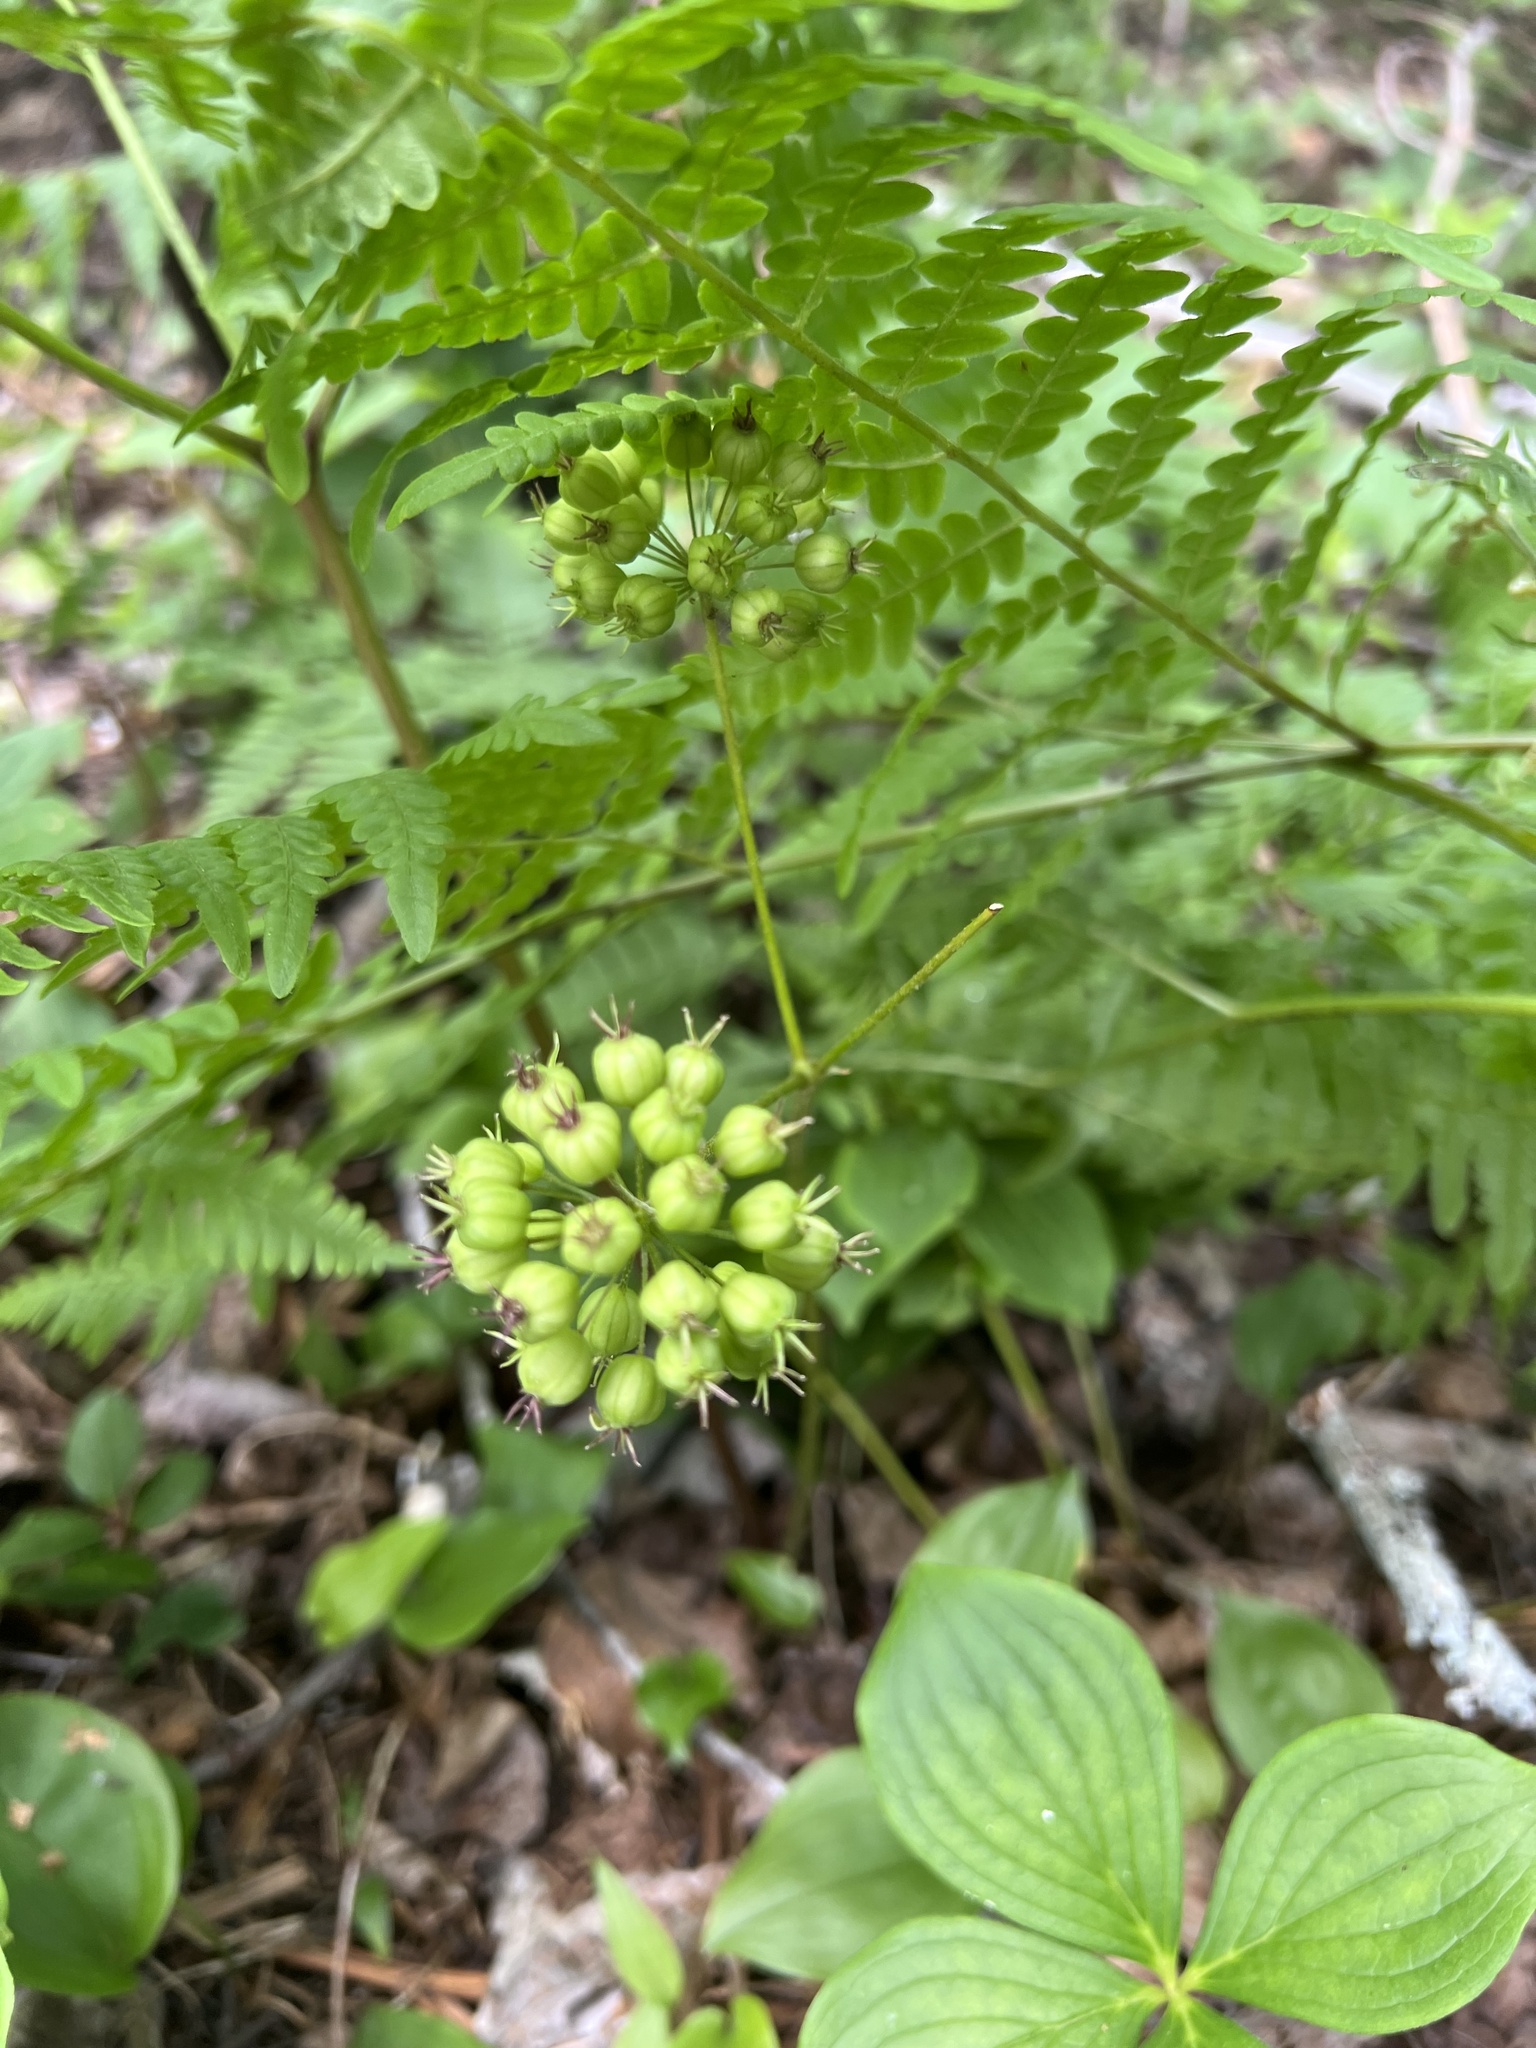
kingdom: Plantae
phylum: Tracheophyta
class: Magnoliopsida
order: Apiales
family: Araliaceae
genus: Aralia
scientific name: Aralia nudicaulis
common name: Wild sarsaparilla
